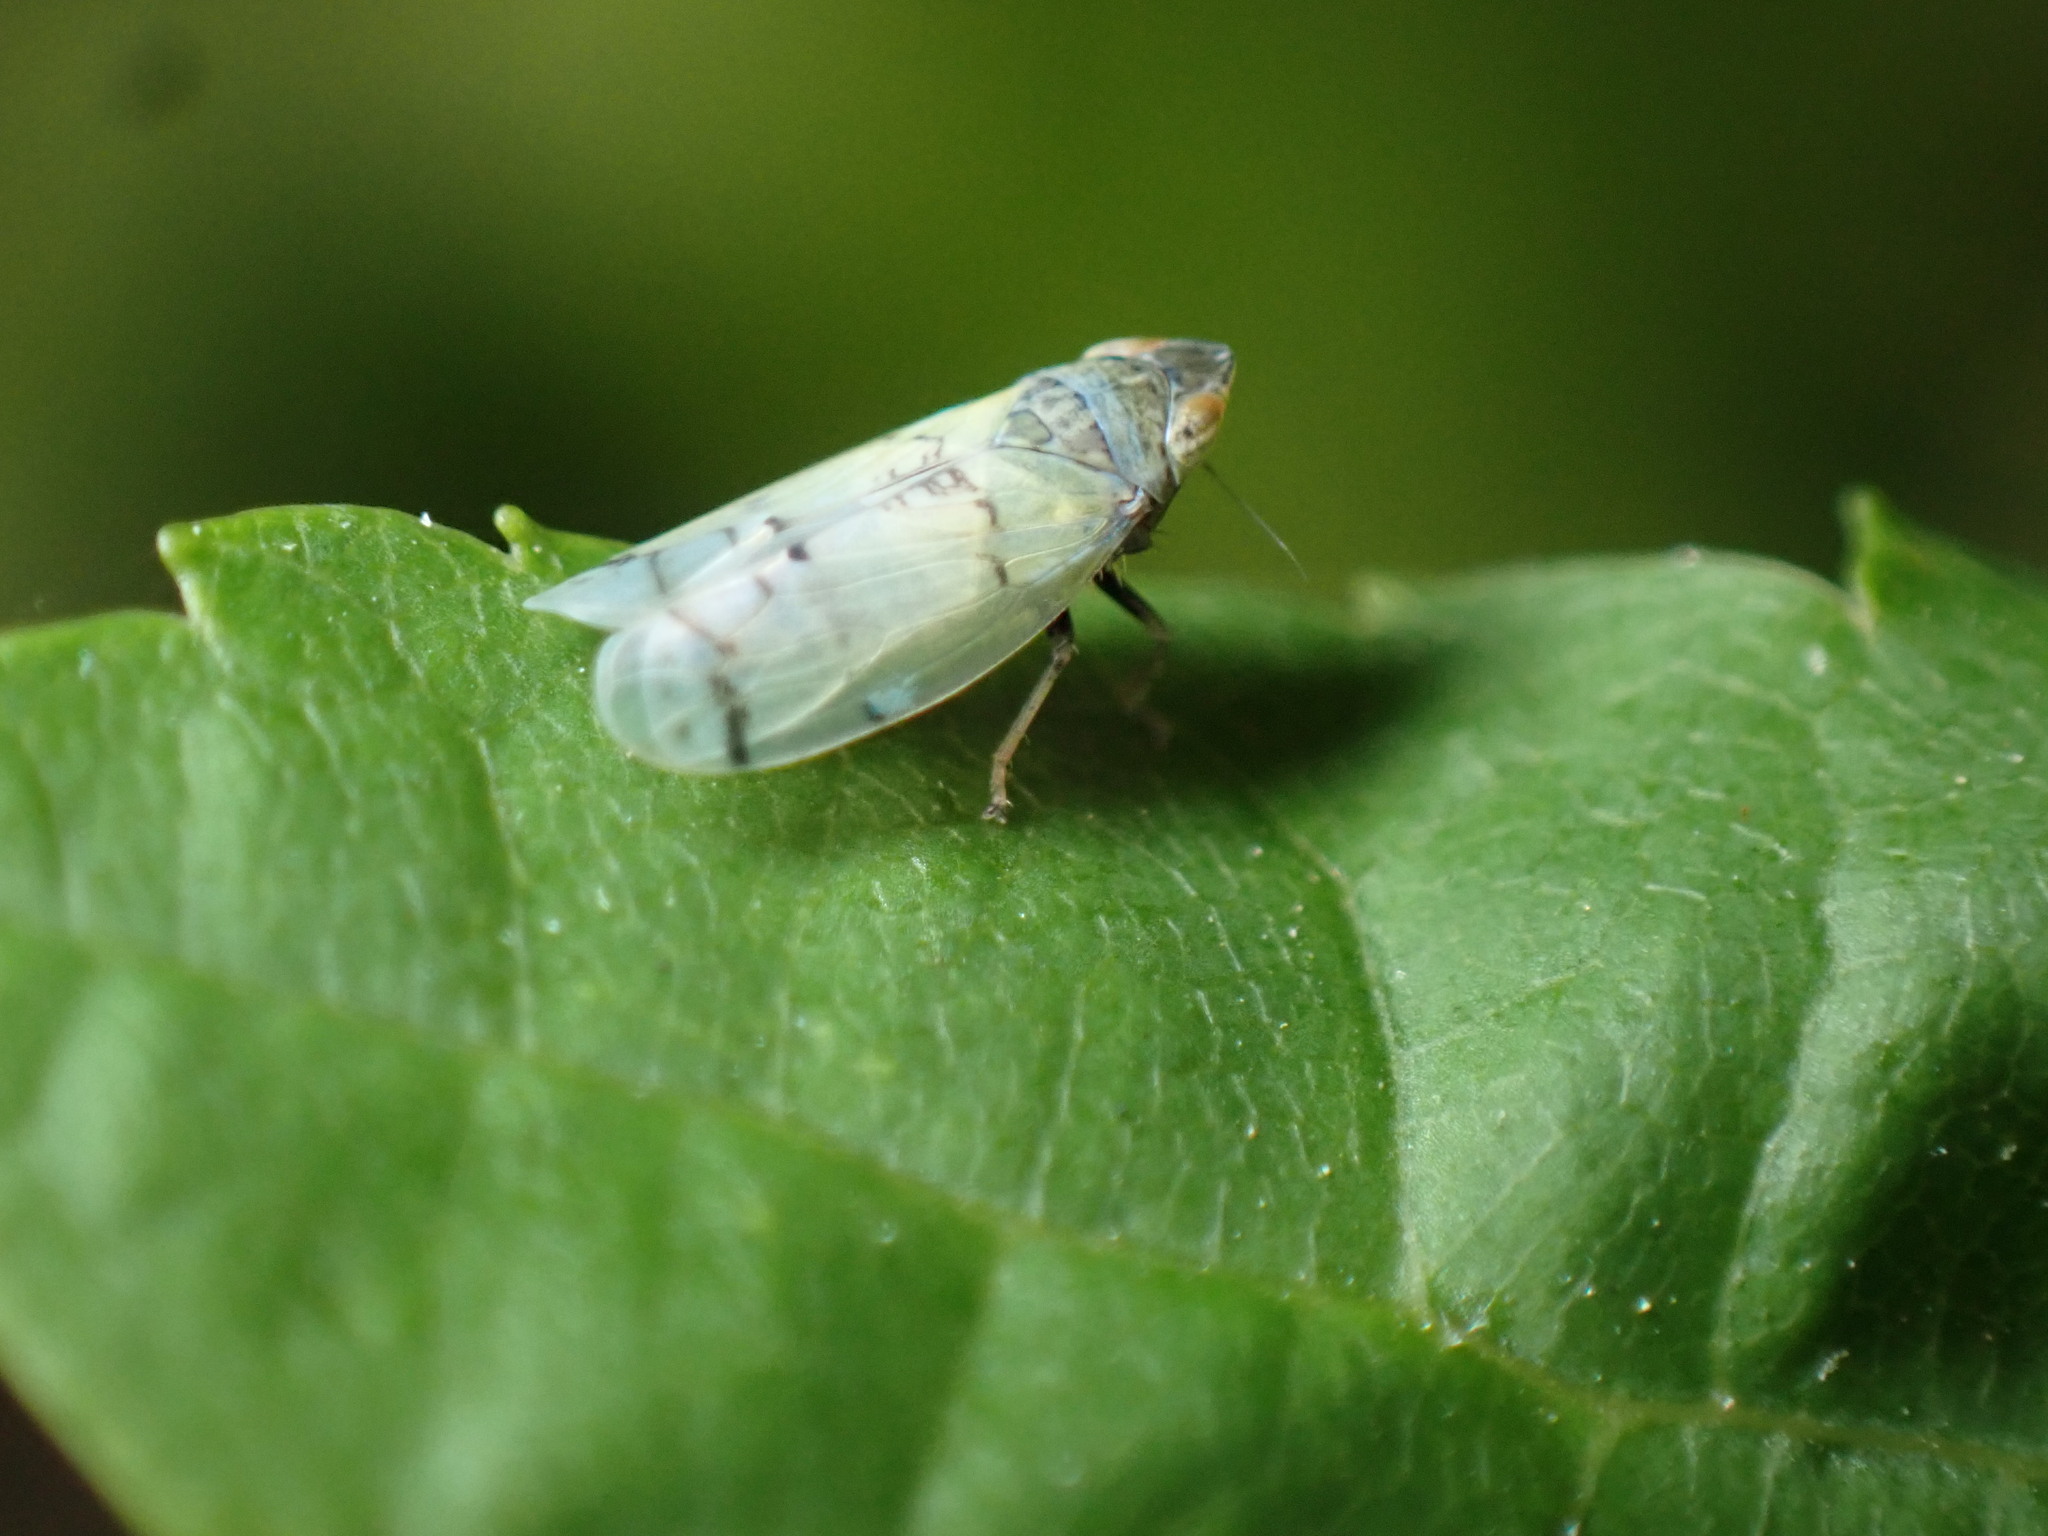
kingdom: Animalia
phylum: Arthropoda
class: Insecta
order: Hemiptera
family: Cicadellidae
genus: Japananus
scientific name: Japananus hyalinus
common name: The japanese maple leafhopper
